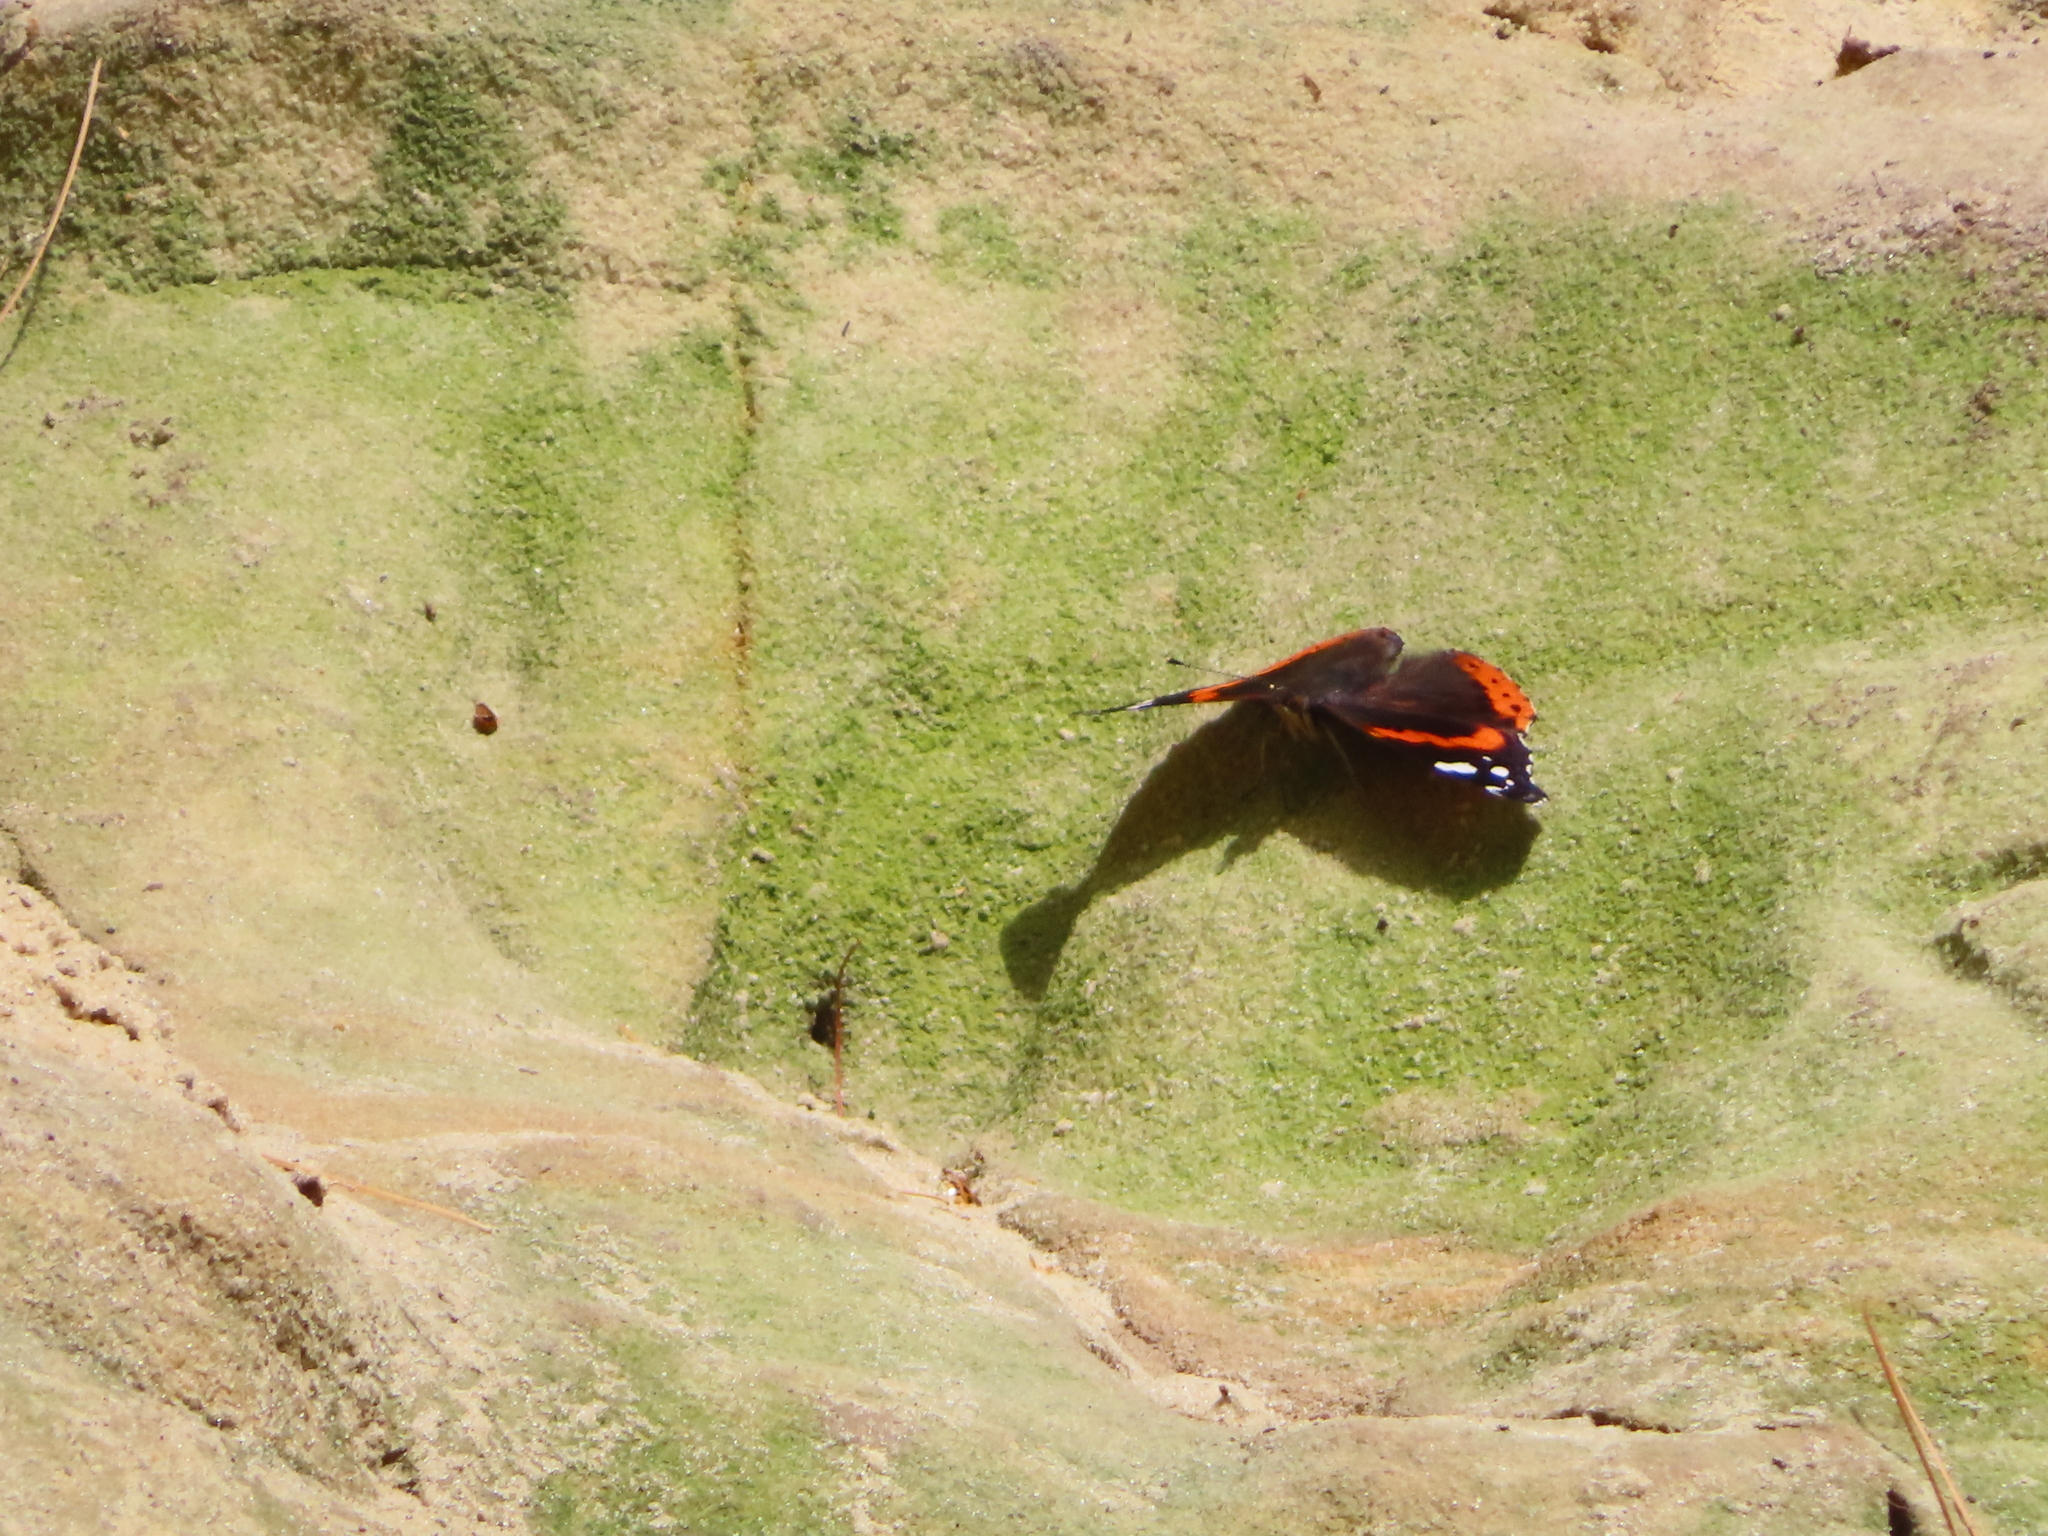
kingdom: Animalia
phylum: Arthropoda
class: Insecta
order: Lepidoptera
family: Nymphalidae
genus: Vanessa
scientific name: Vanessa atalanta
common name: Red admiral
